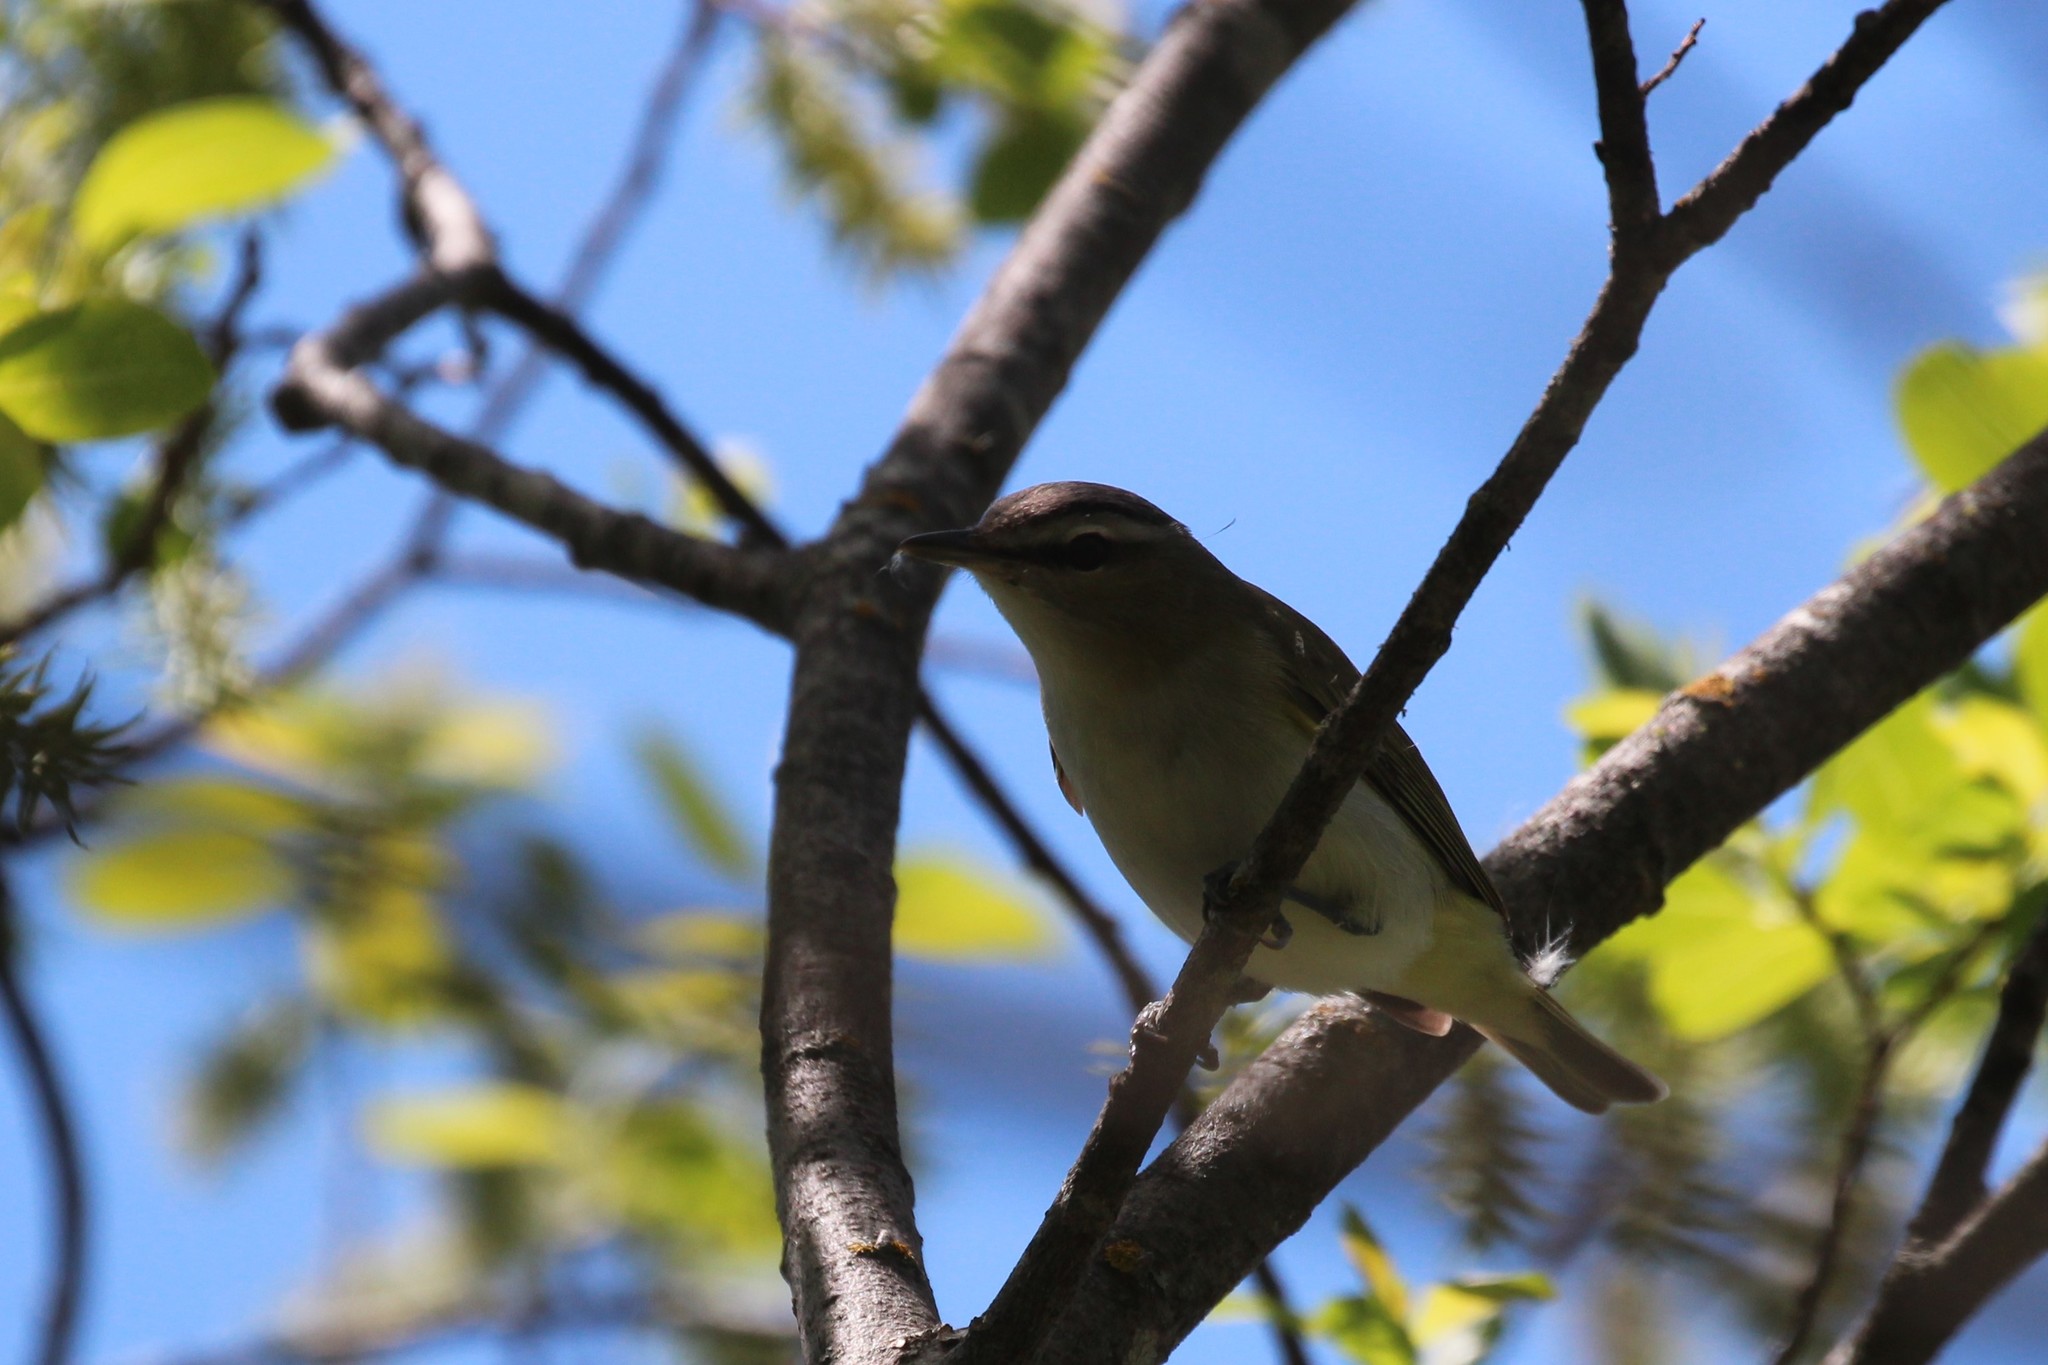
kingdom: Animalia
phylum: Chordata
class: Aves
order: Passeriformes
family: Vireonidae
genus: Vireo
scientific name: Vireo olivaceus
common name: Red-eyed vireo
